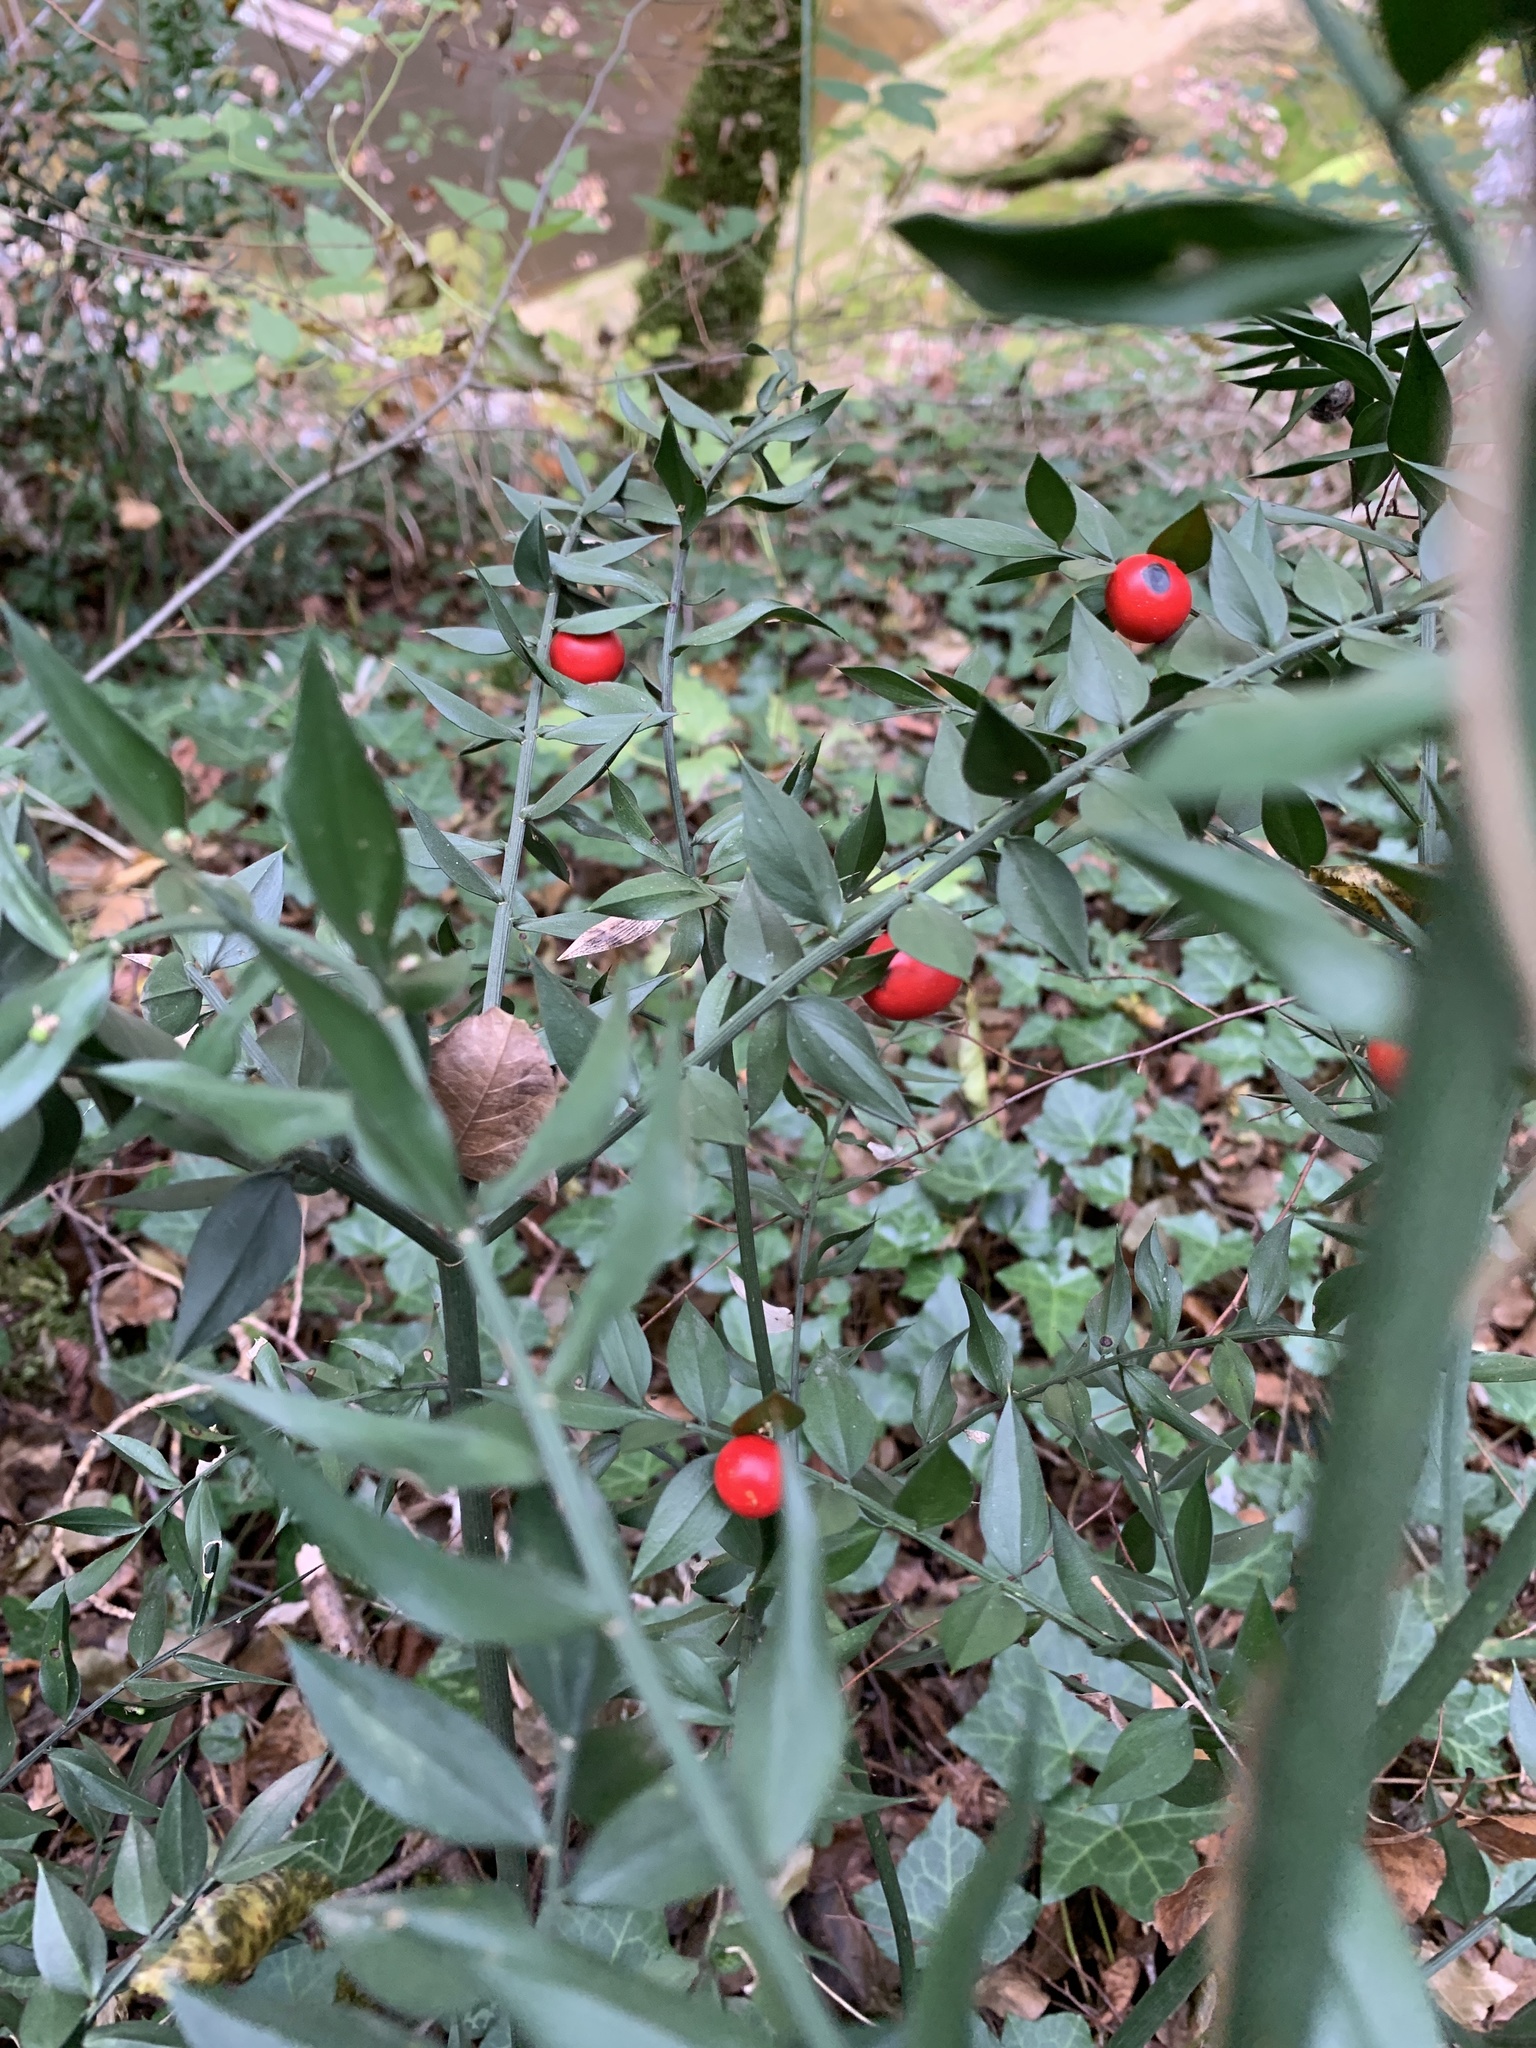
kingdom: Plantae
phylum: Tracheophyta
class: Liliopsida
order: Asparagales
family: Asparagaceae
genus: Ruscus
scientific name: Ruscus aculeatus
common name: Butcher's-broom
